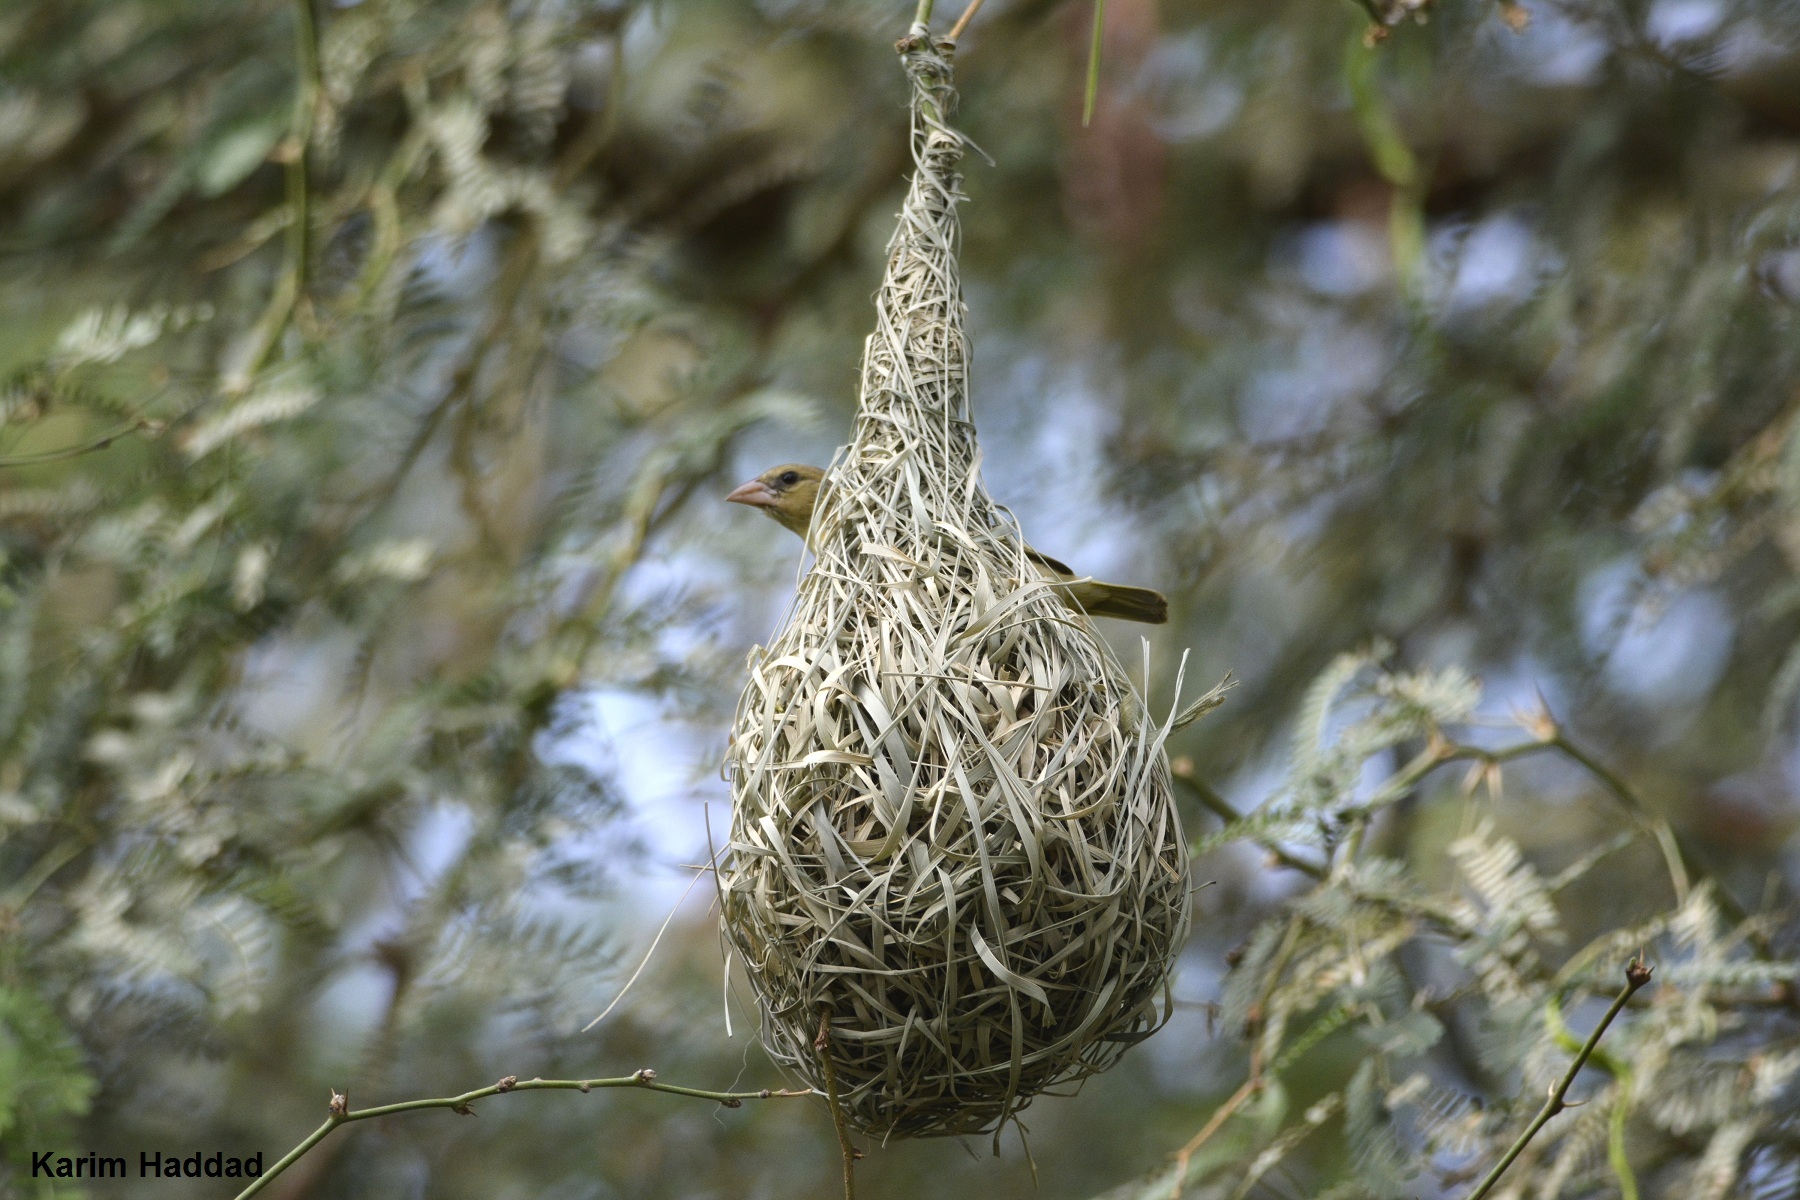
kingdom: Animalia
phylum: Chordata
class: Aves
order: Passeriformes
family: Ploceidae
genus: Ploceus
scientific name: Ploceus vitellinus
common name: Vitelline masked weaver
